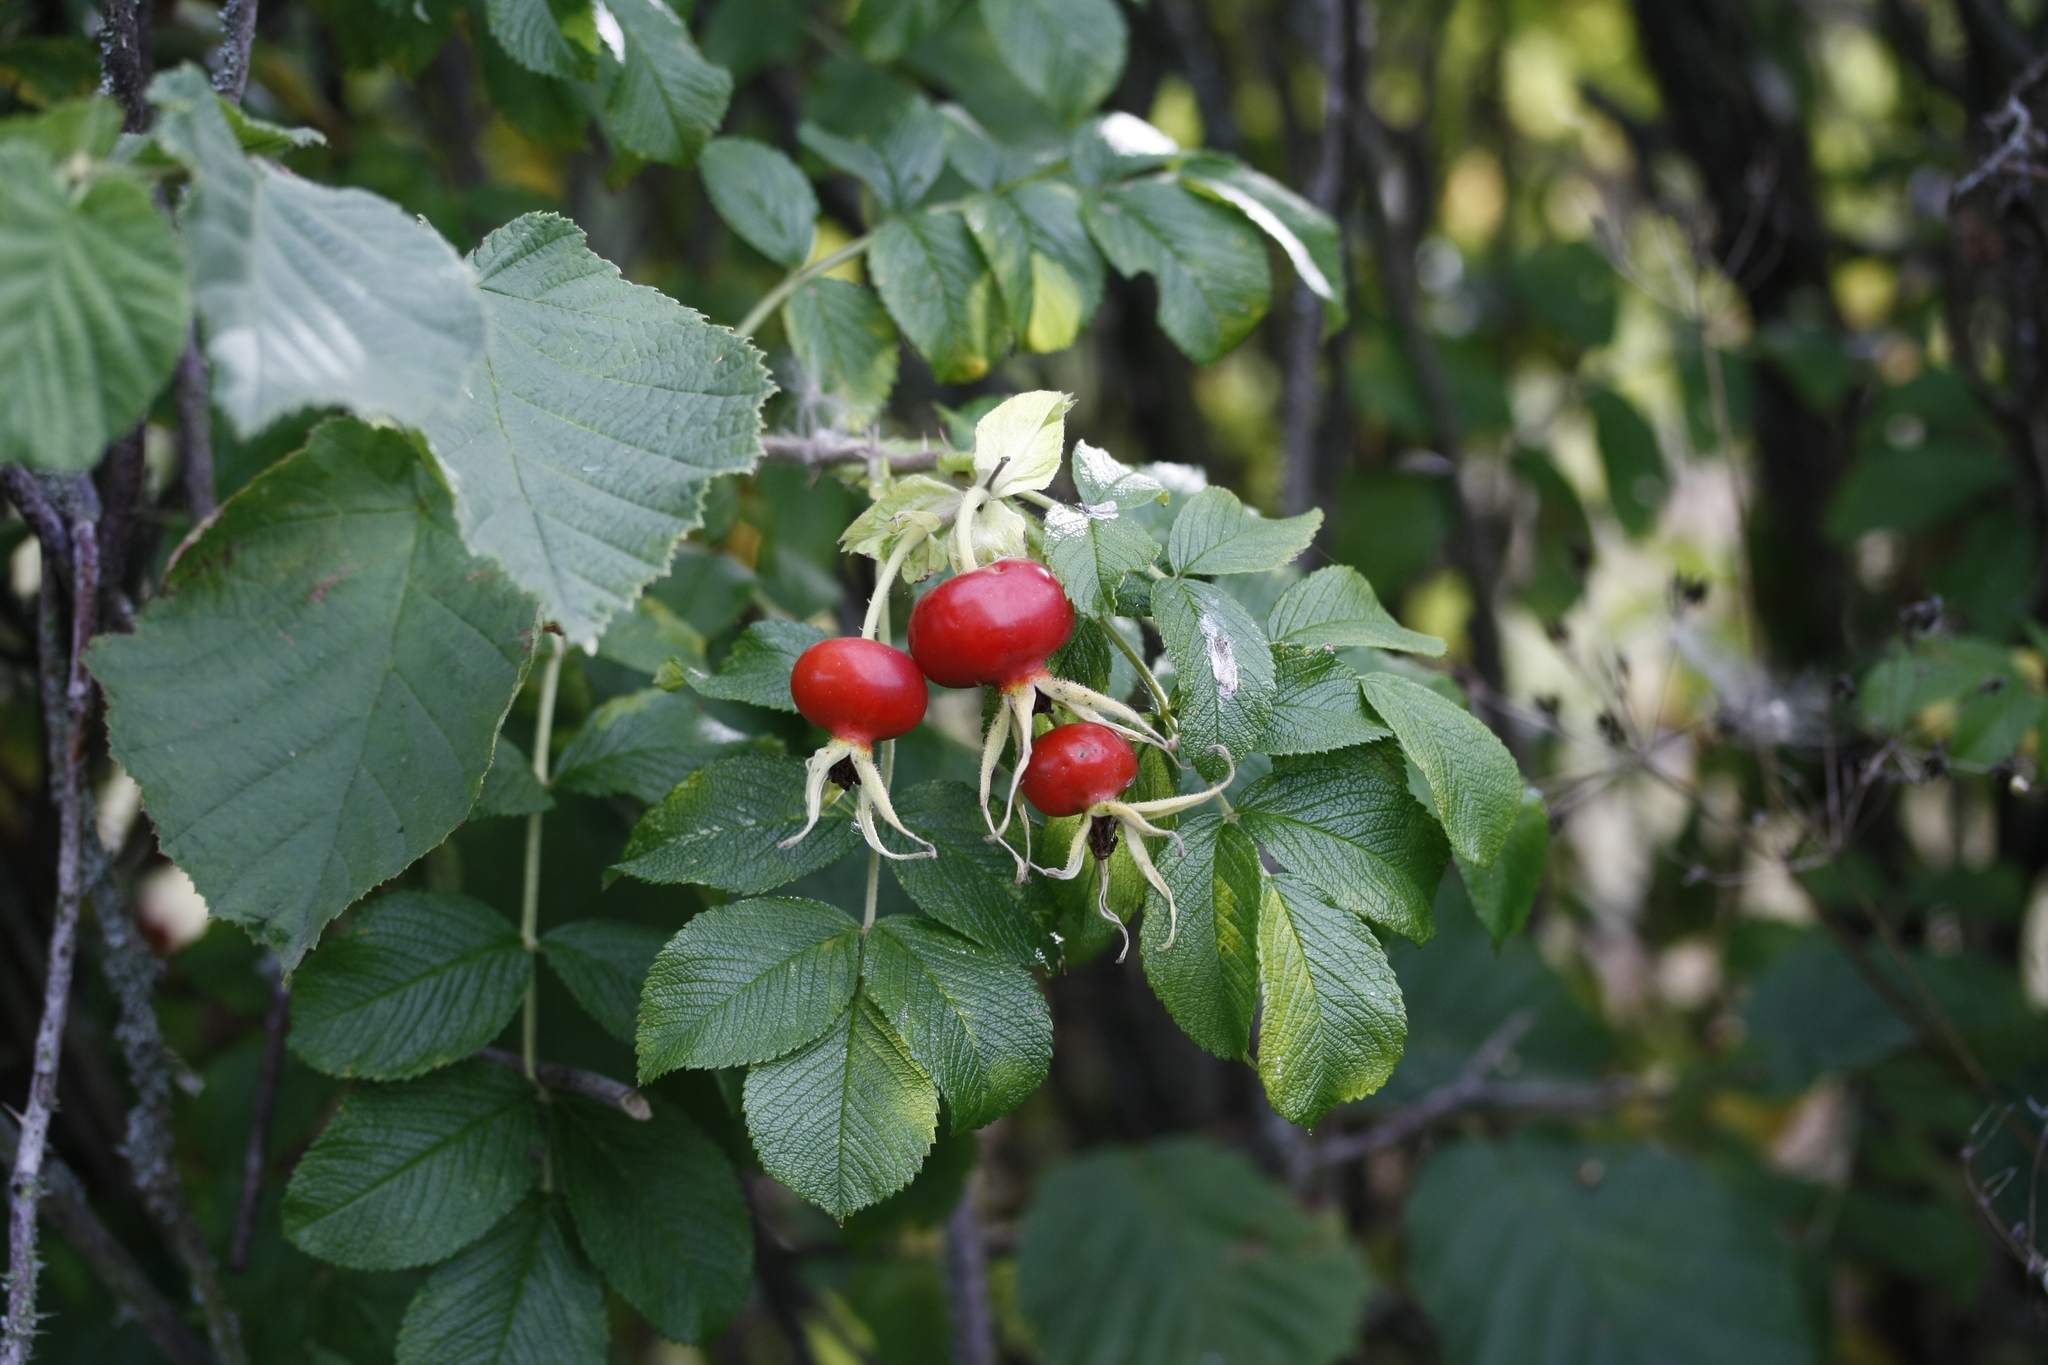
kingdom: Plantae
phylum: Tracheophyta
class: Magnoliopsida
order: Rosales
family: Rosaceae
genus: Rosa
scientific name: Rosa rugosa
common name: Japanese rose
